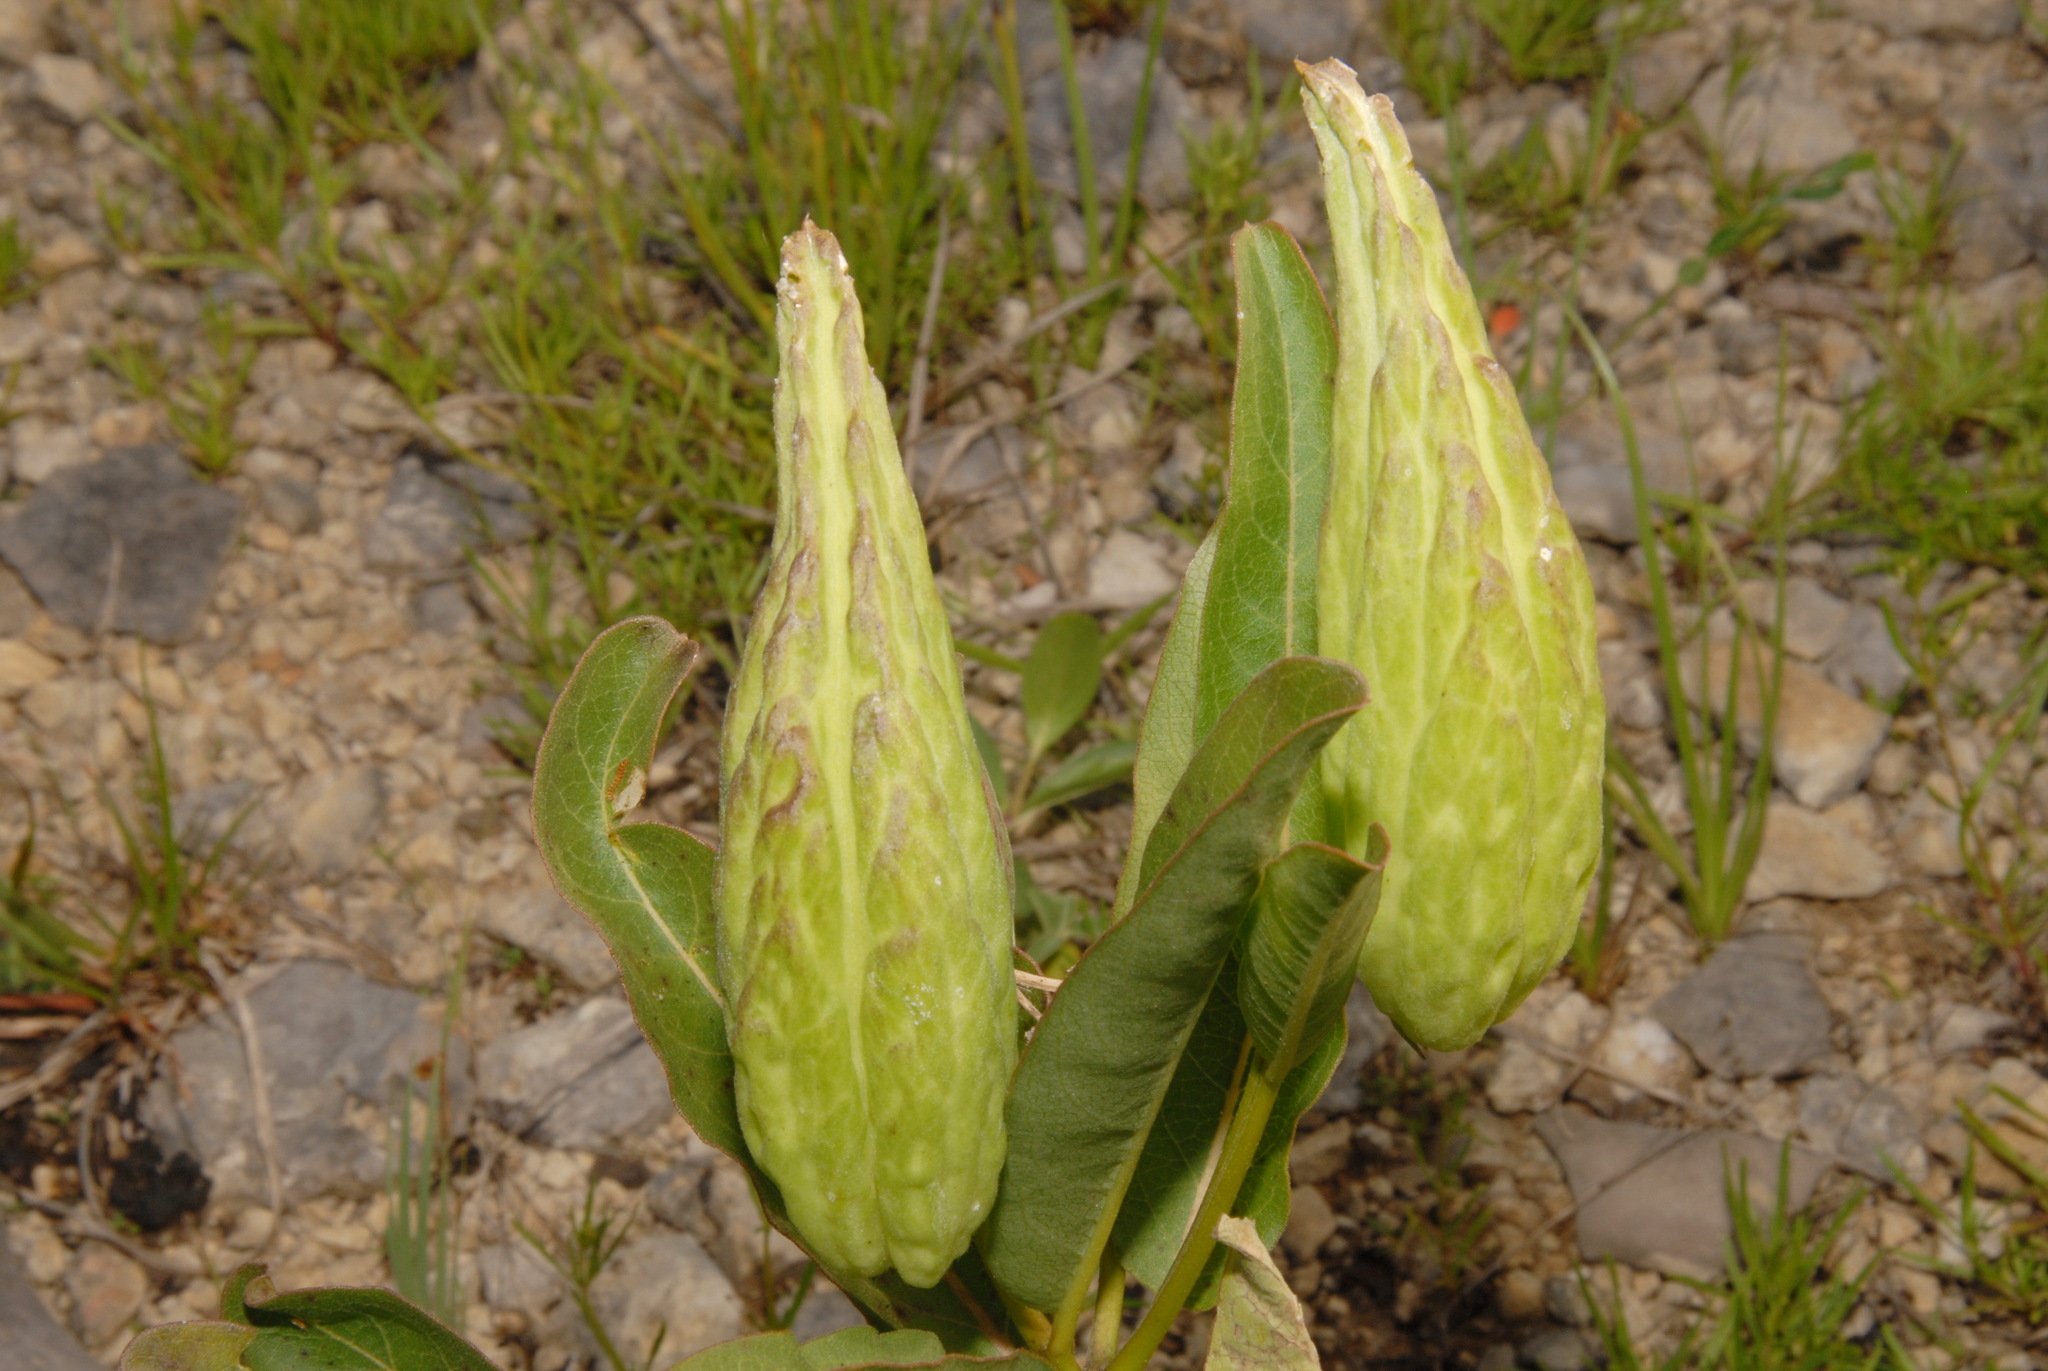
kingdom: Plantae
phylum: Tracheophyta
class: Magnoliopsida
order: Gentianales
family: Apocynaceae
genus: Asclepias
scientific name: Asclepias viridis
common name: Antelope-horns
